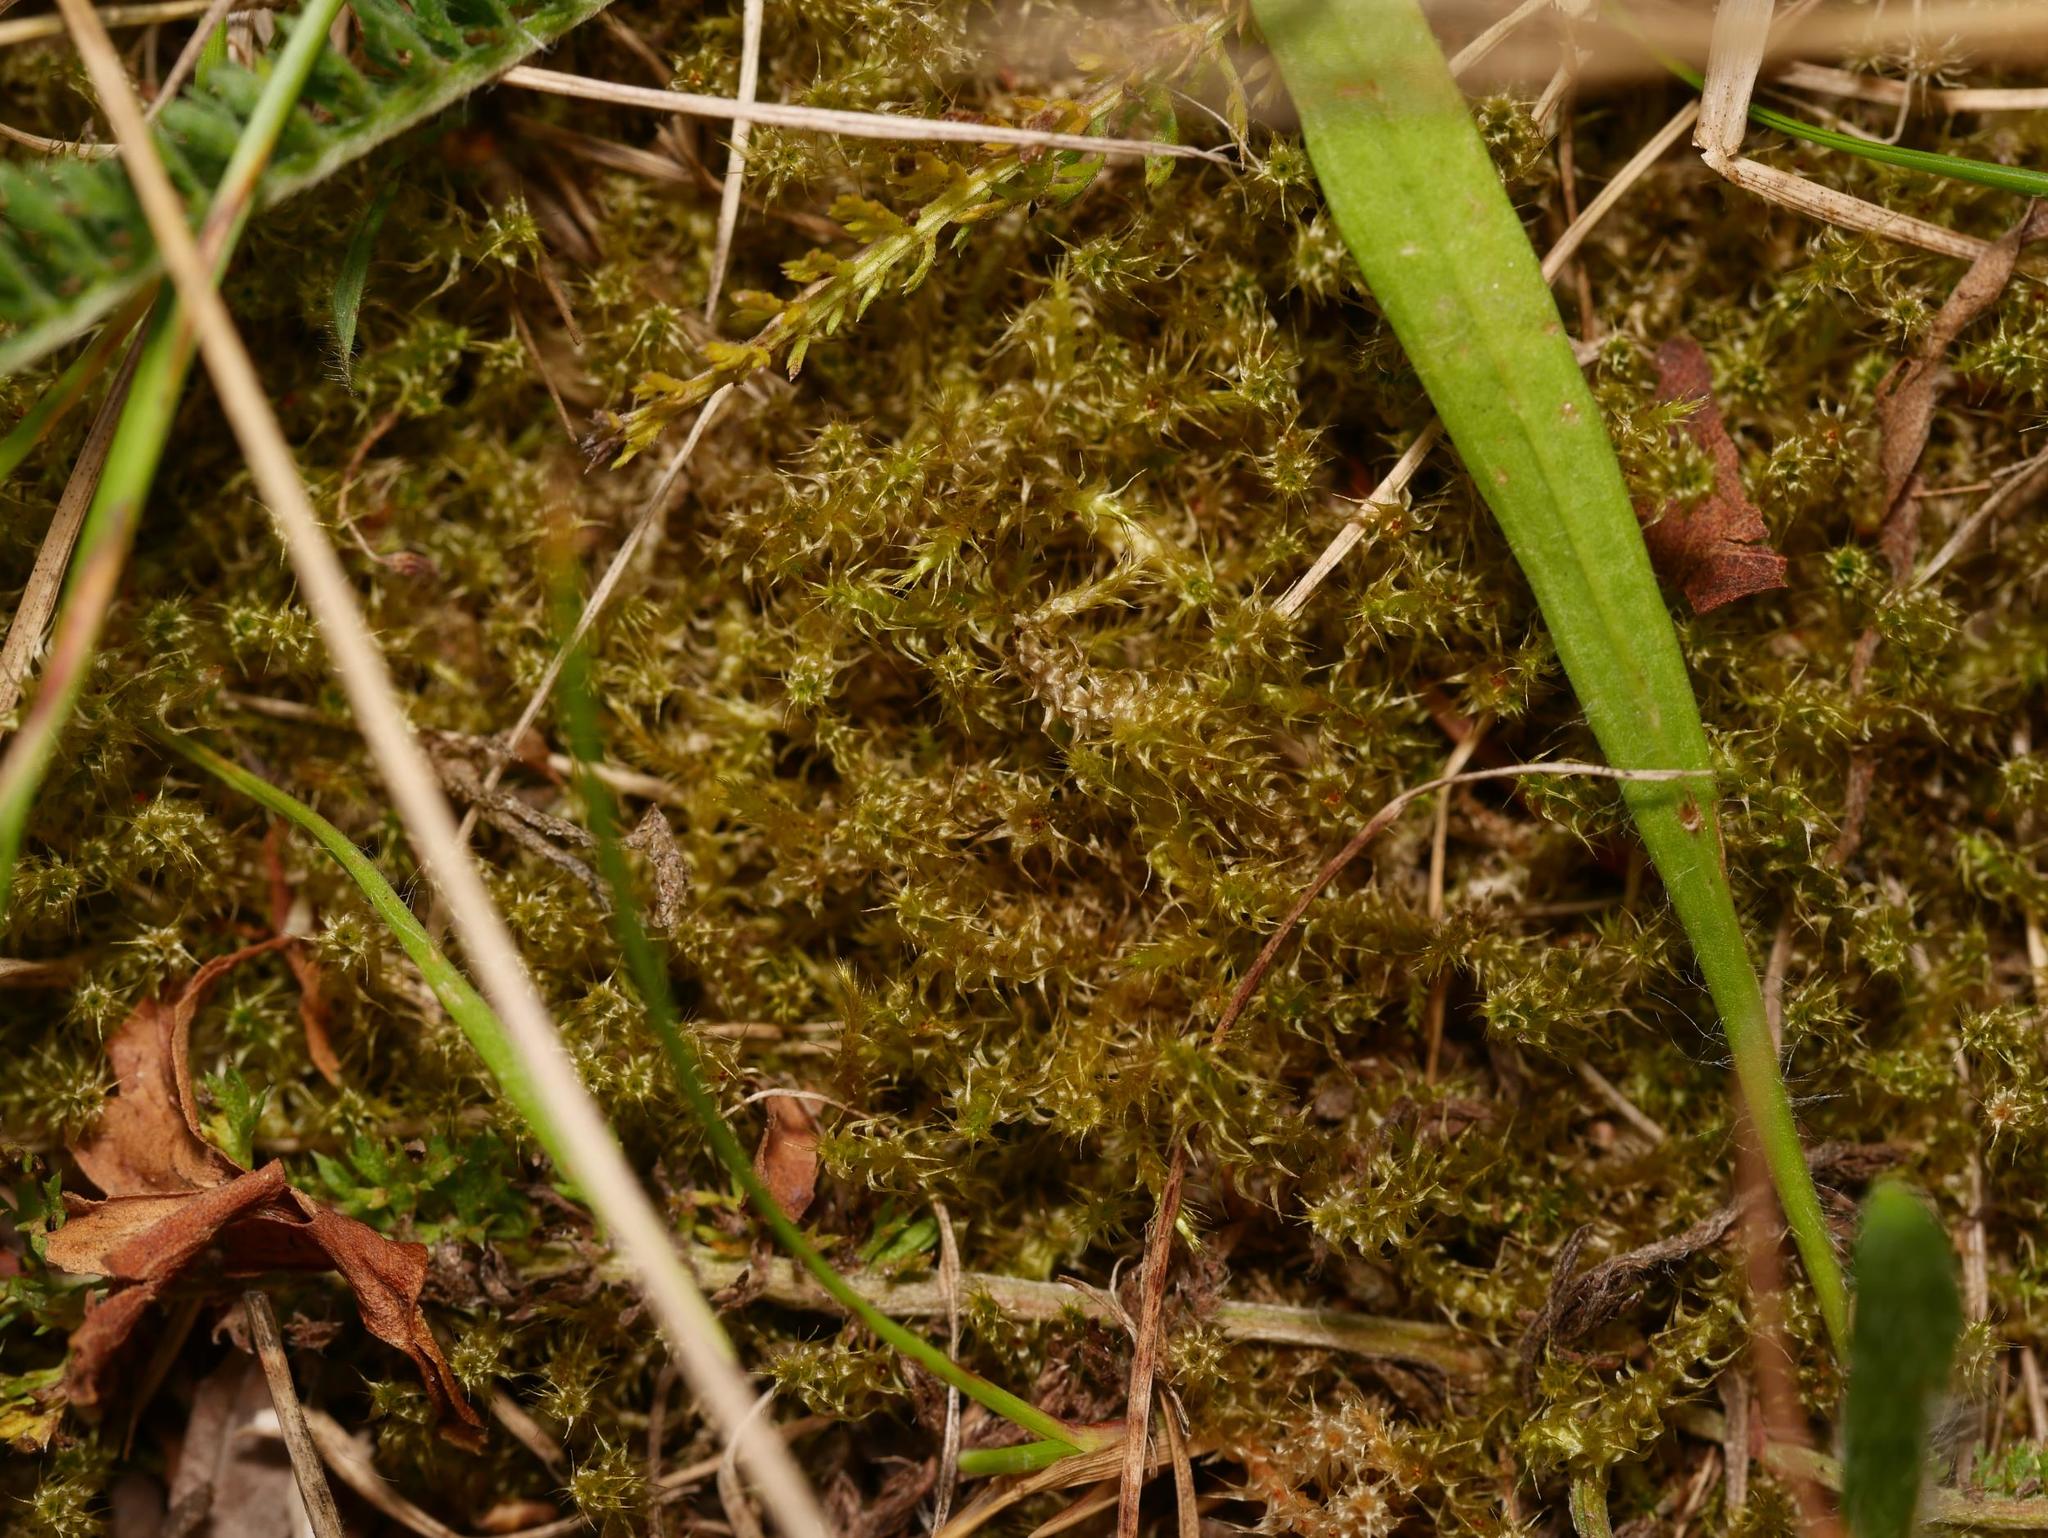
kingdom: Plantae
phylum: Bryophyta
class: Bryopsida
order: Hypnales
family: Hylocomiaceae
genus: Rhytidiadelphus
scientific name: Rhytidiadelphus squarrosus
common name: Springy turf-moss
